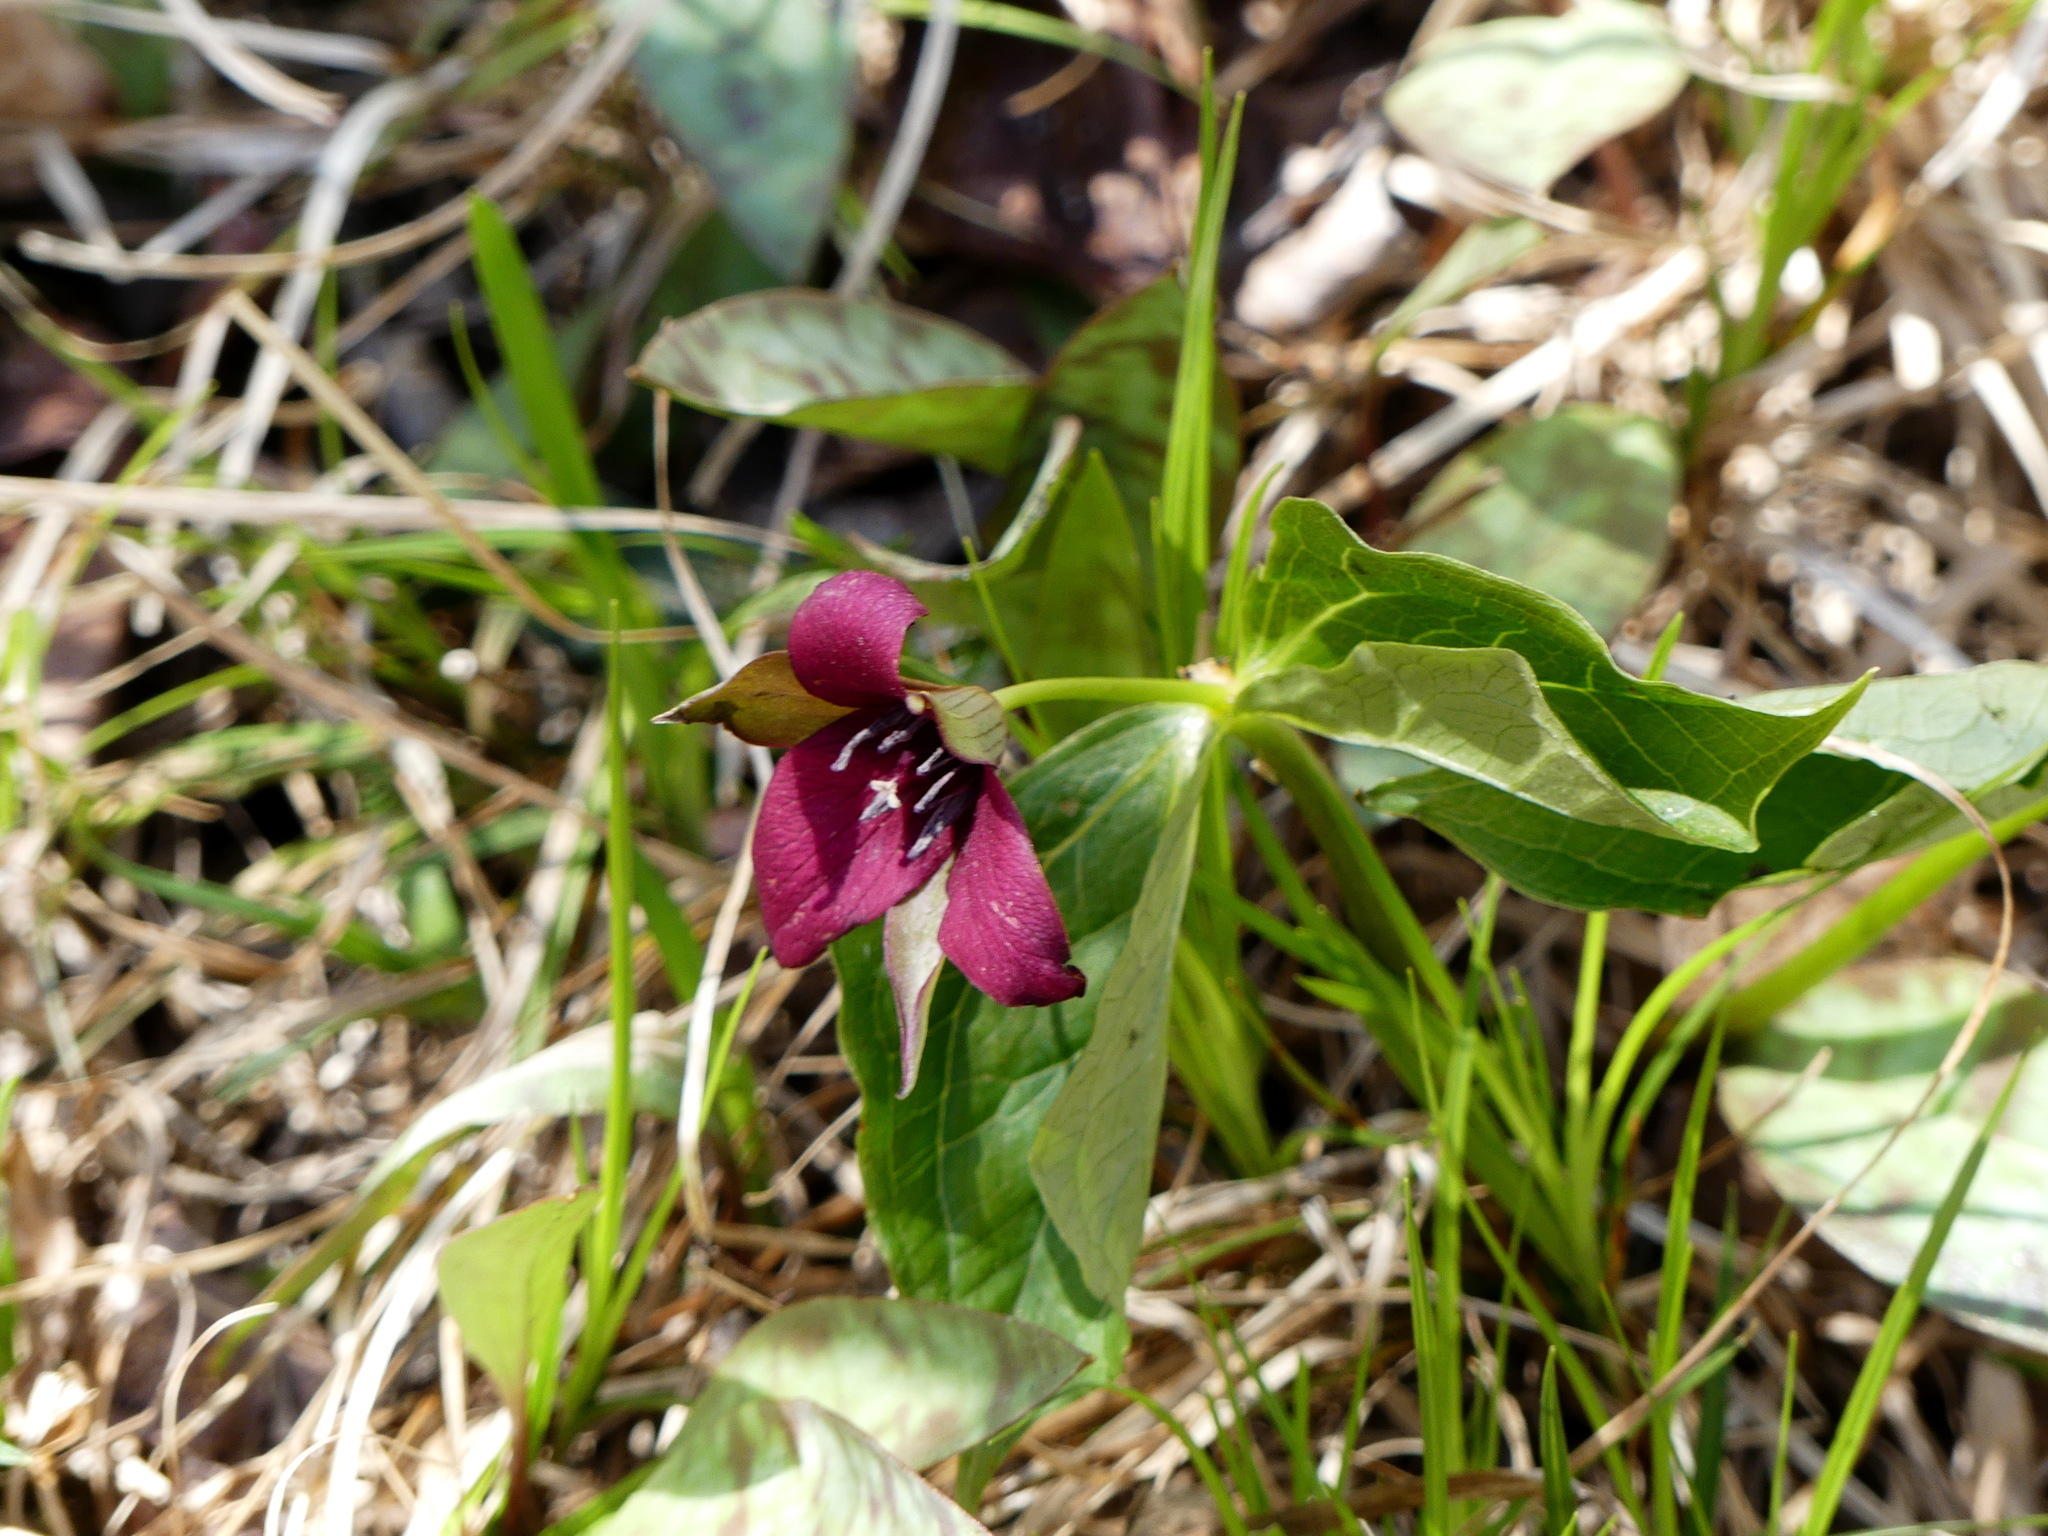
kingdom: Plantae
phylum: Tracheophyta
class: Liliopsida
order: Liliales
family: Melanthiaceae
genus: Trillium
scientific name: Trillium erectum
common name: Purple trillium
